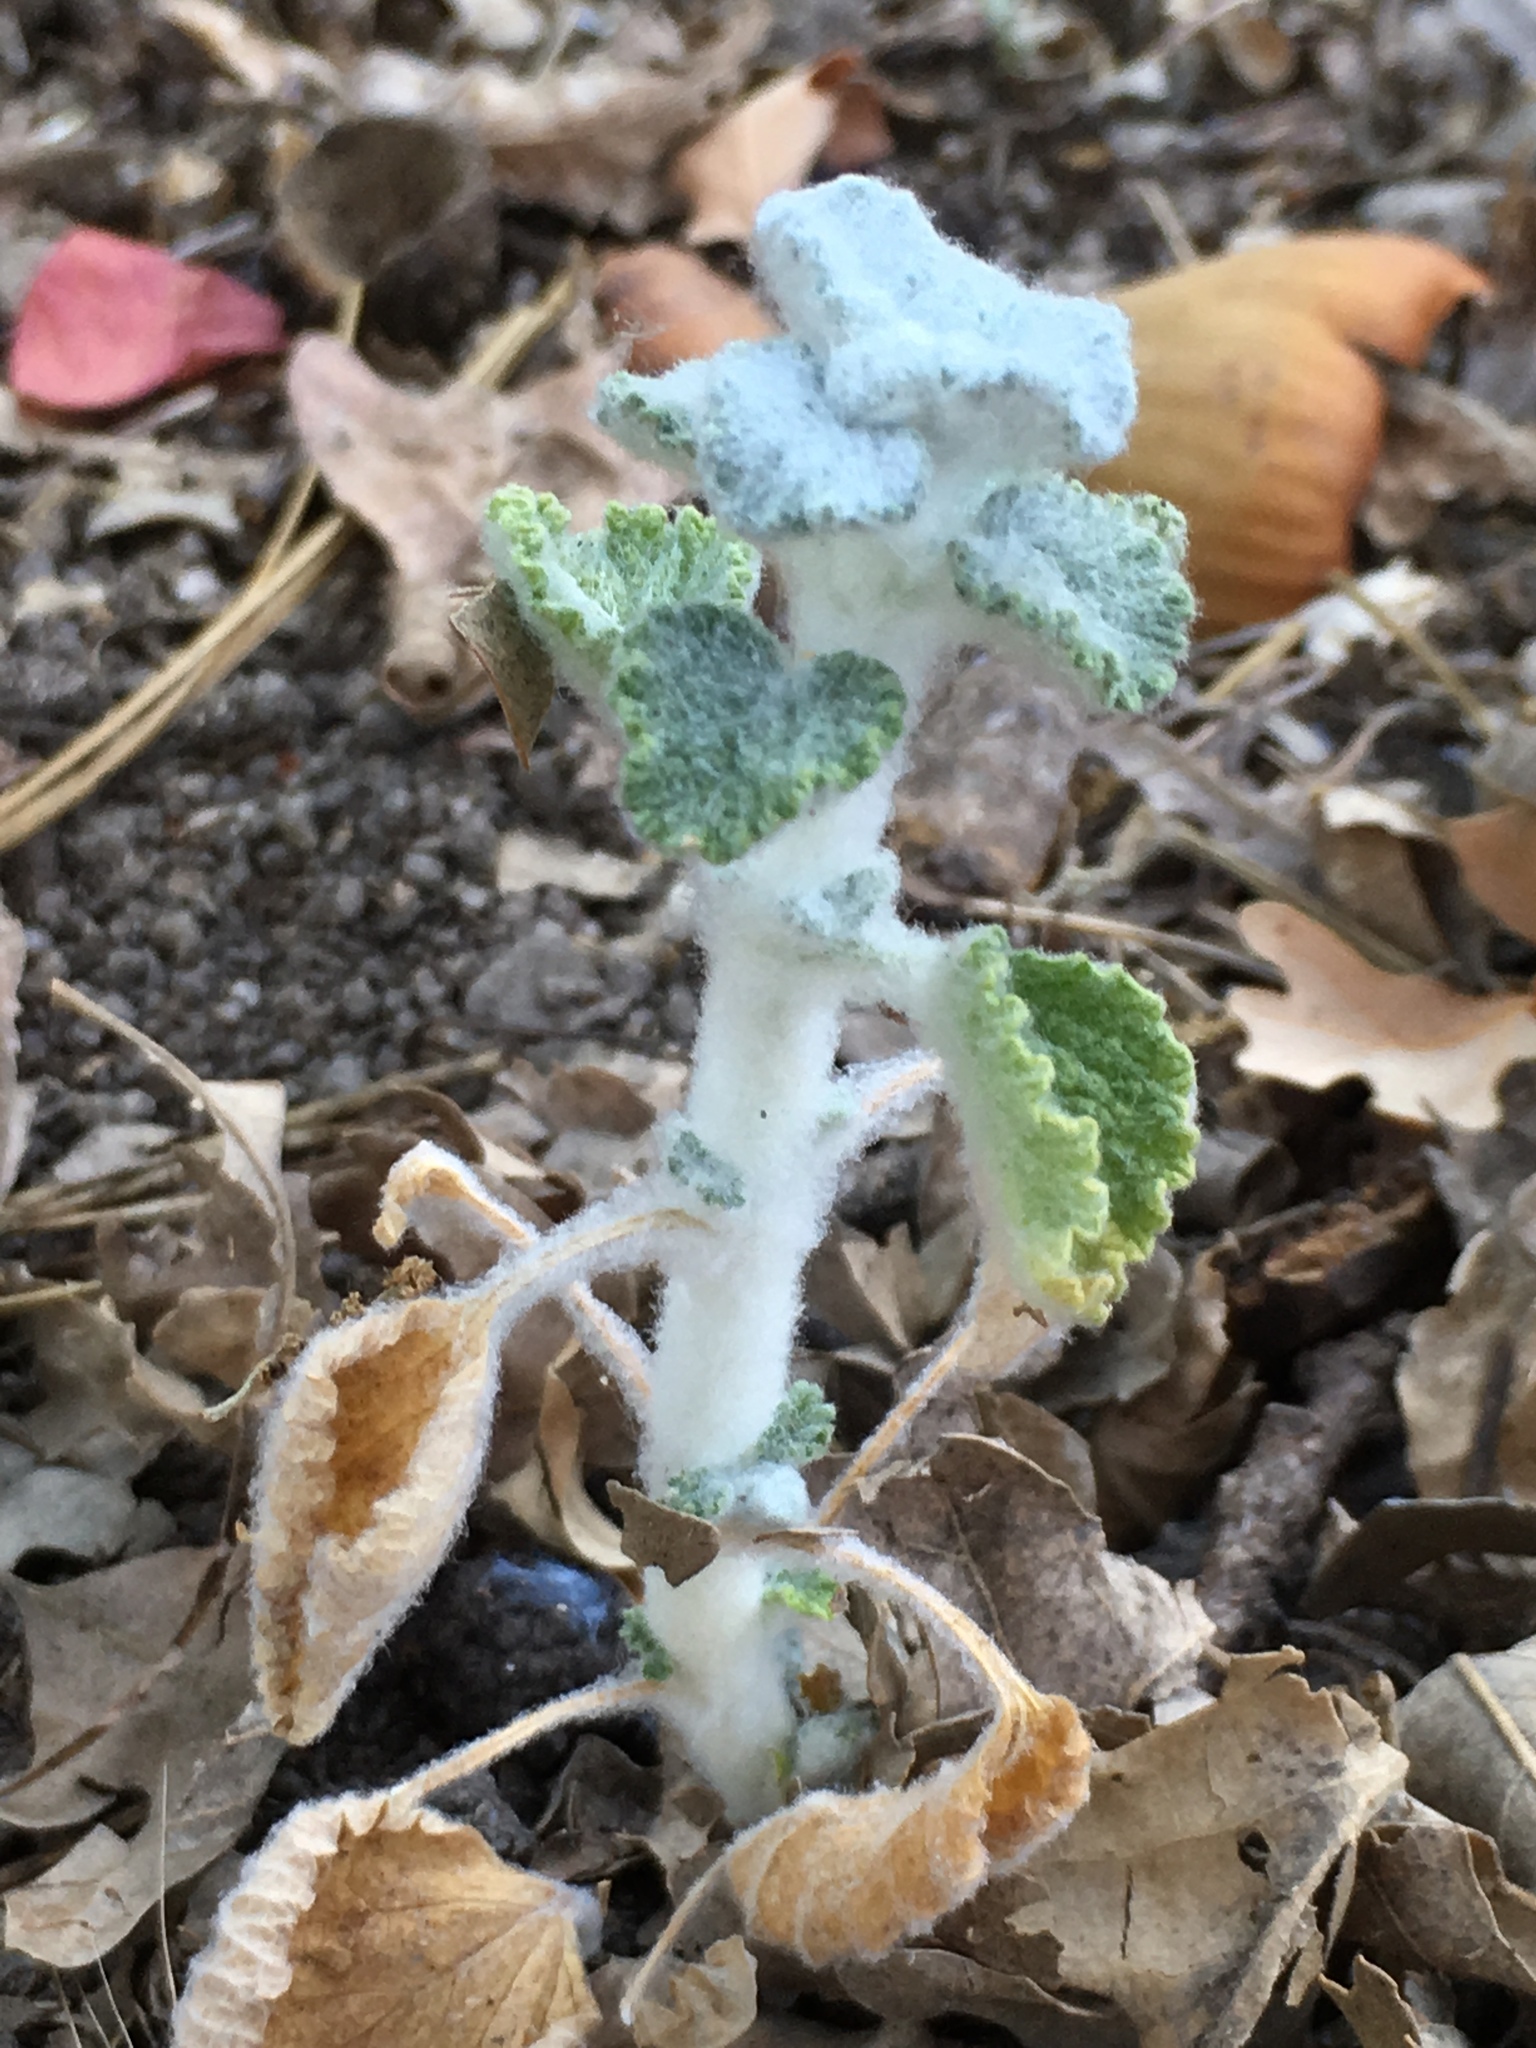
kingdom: Plantae
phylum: Tracheophyta
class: Magnoliopsida
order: Lamiales
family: Lamiaceae
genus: Marrubium
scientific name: Marrubium vulgare
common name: Horehound
